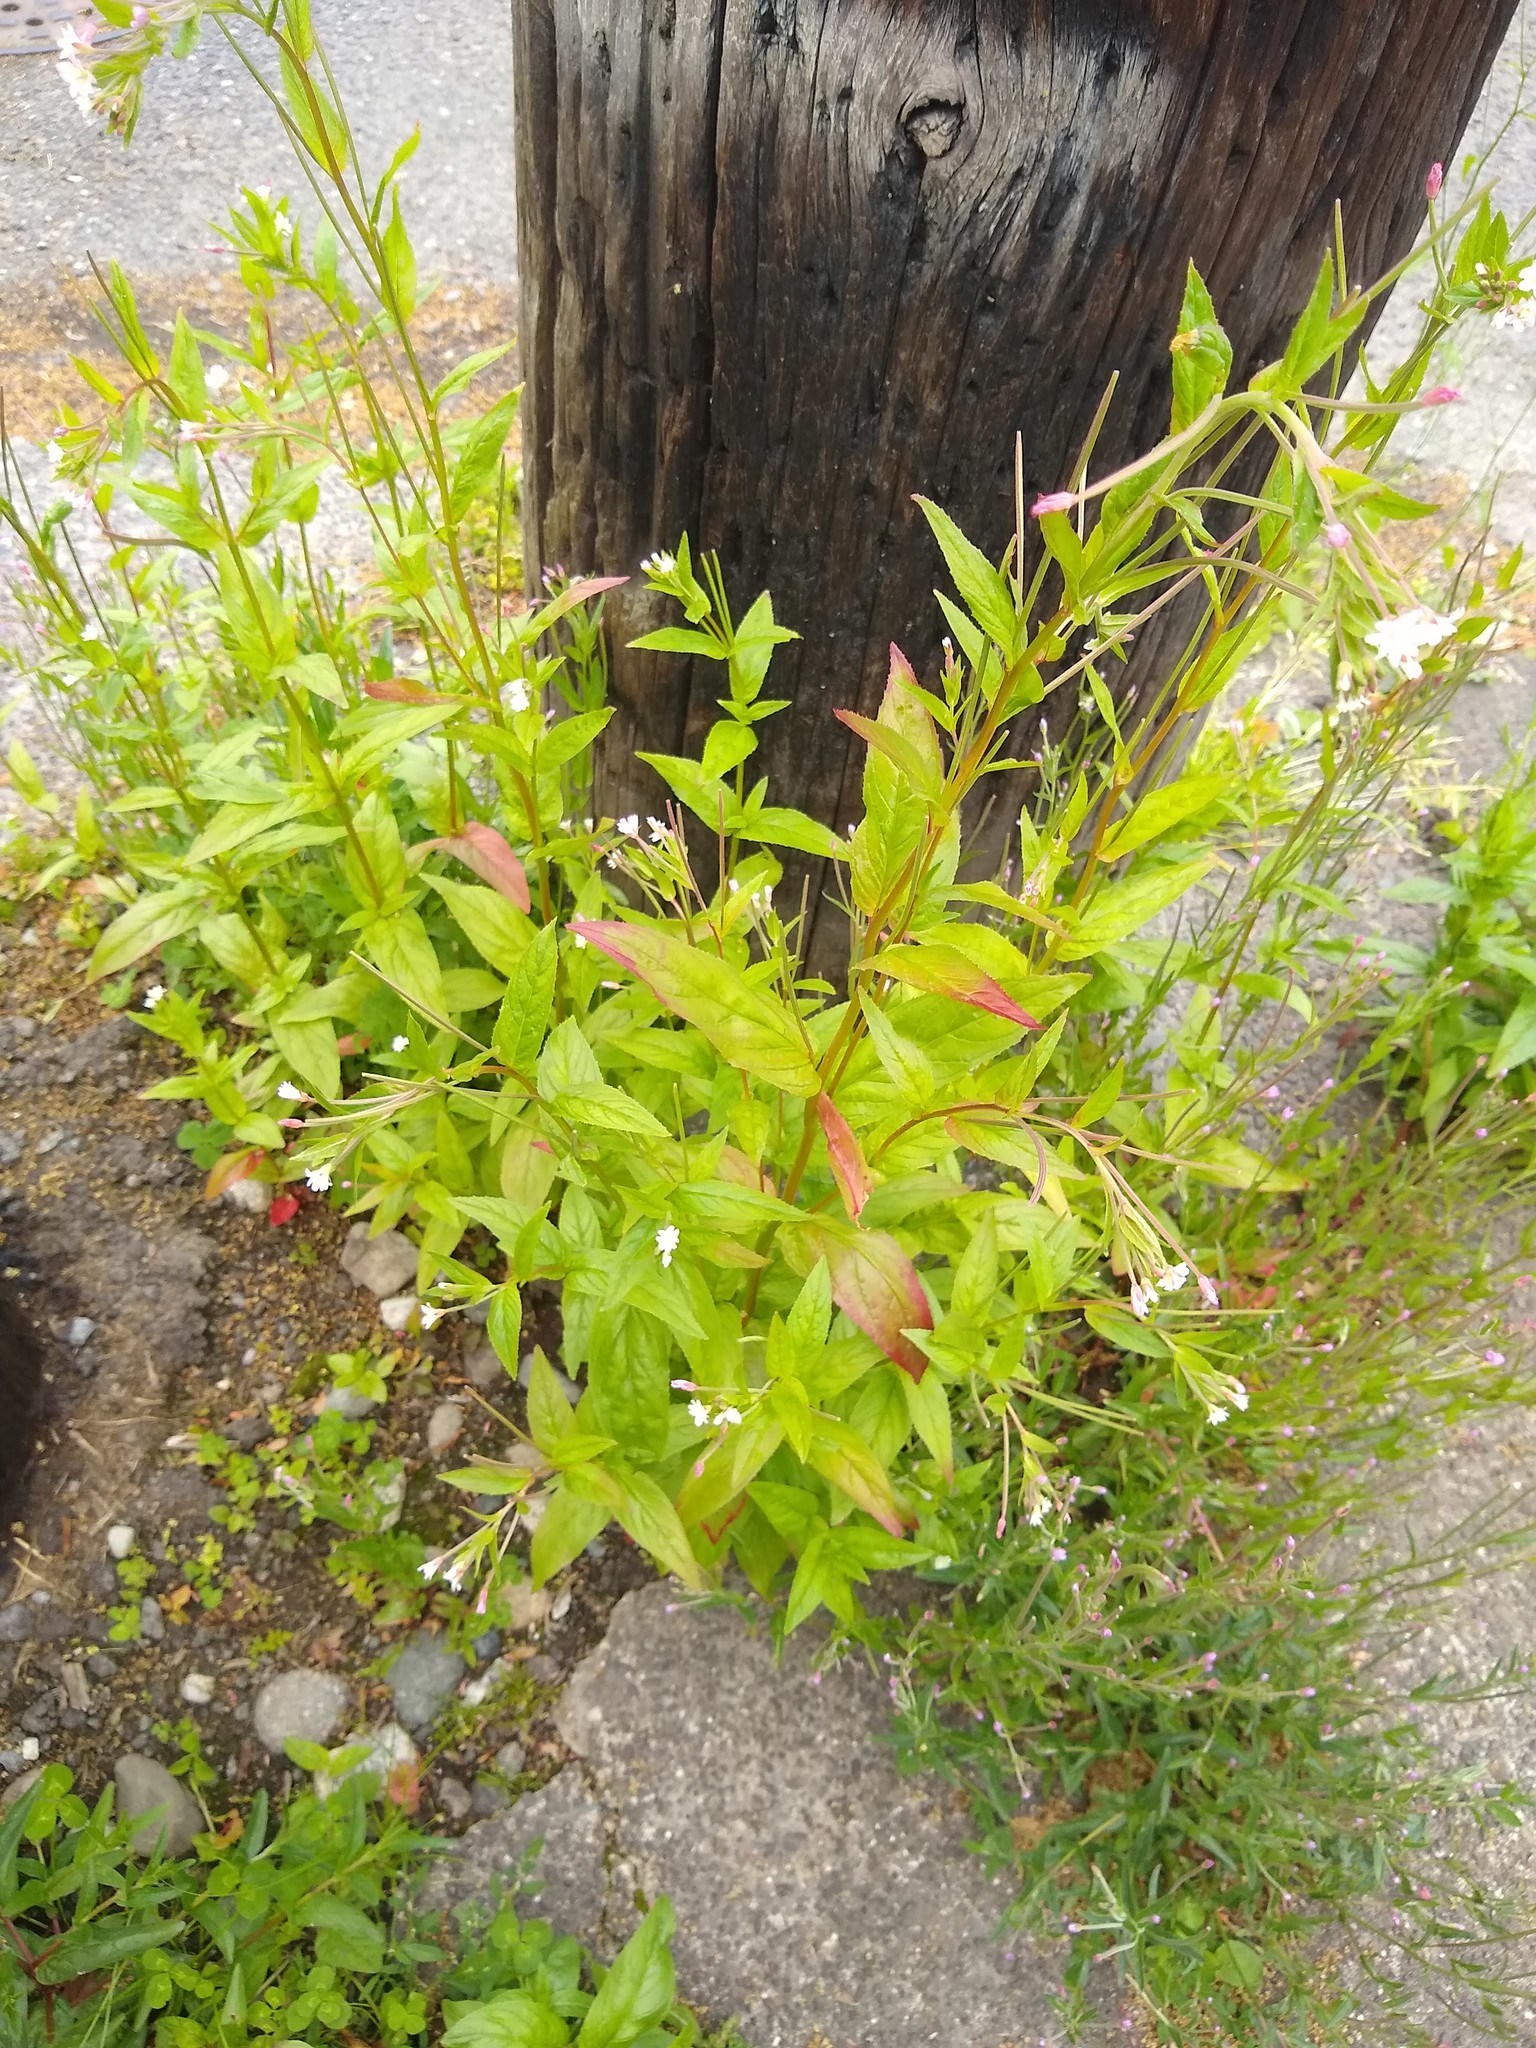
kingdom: Plantae
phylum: Tracheophyta
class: Magnoliopsida
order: Myrtales
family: Onagraceae
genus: Epilobium
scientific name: Epilobium ciliatum
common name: American willowherb
